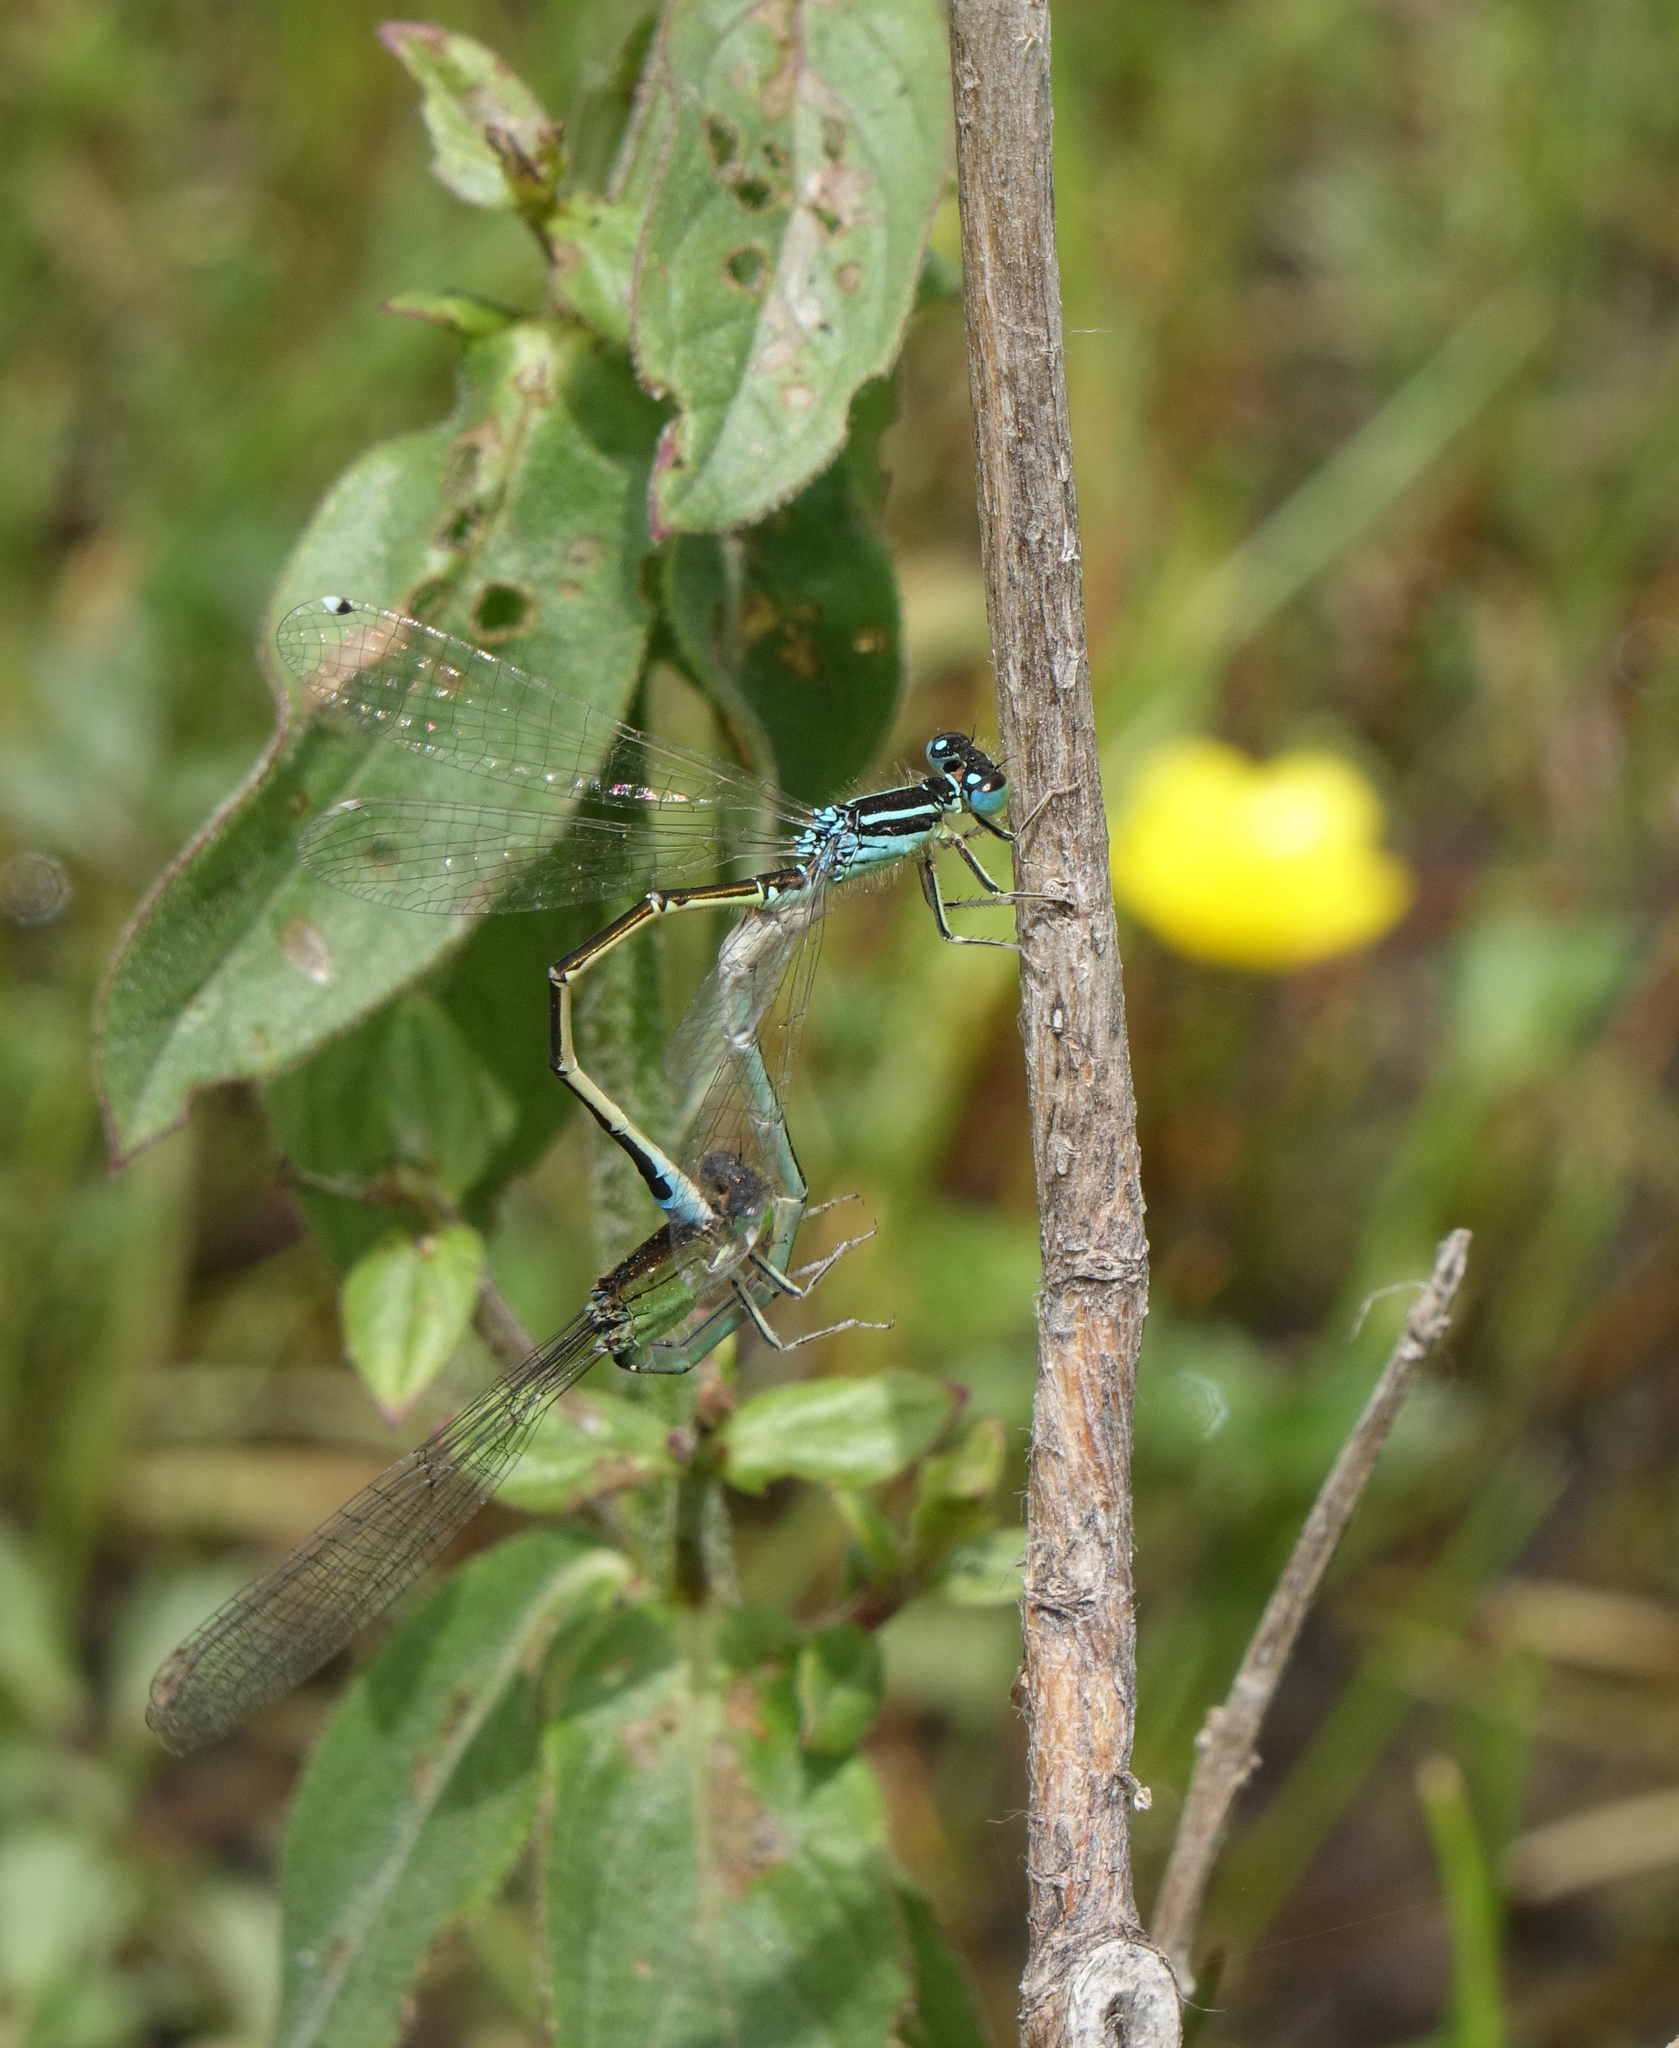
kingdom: Animalia
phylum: Arthropoda
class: Insecta
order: Odonata
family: Coenagrionidae
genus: Ischnura
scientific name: Ischnura pumilio
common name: Scarce blue-tailed damselfly
